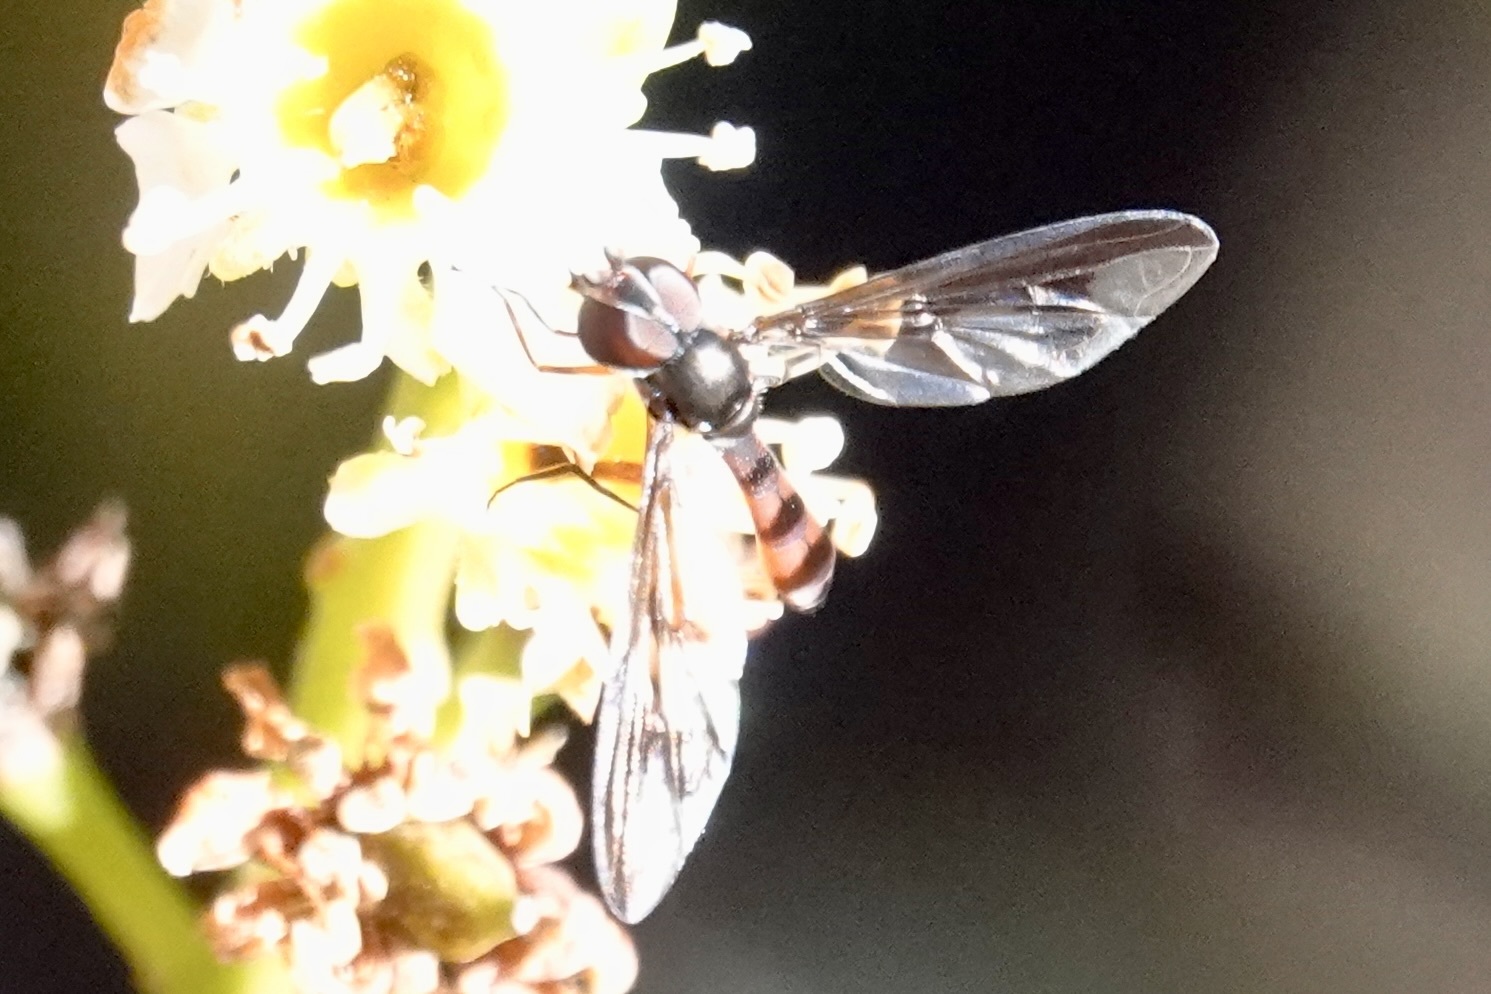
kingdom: Animalia
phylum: Arthropoda
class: Insecta
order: Diptera
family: Syrphidae
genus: Ocyptamus
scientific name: Ocyptamus fuscipennis
